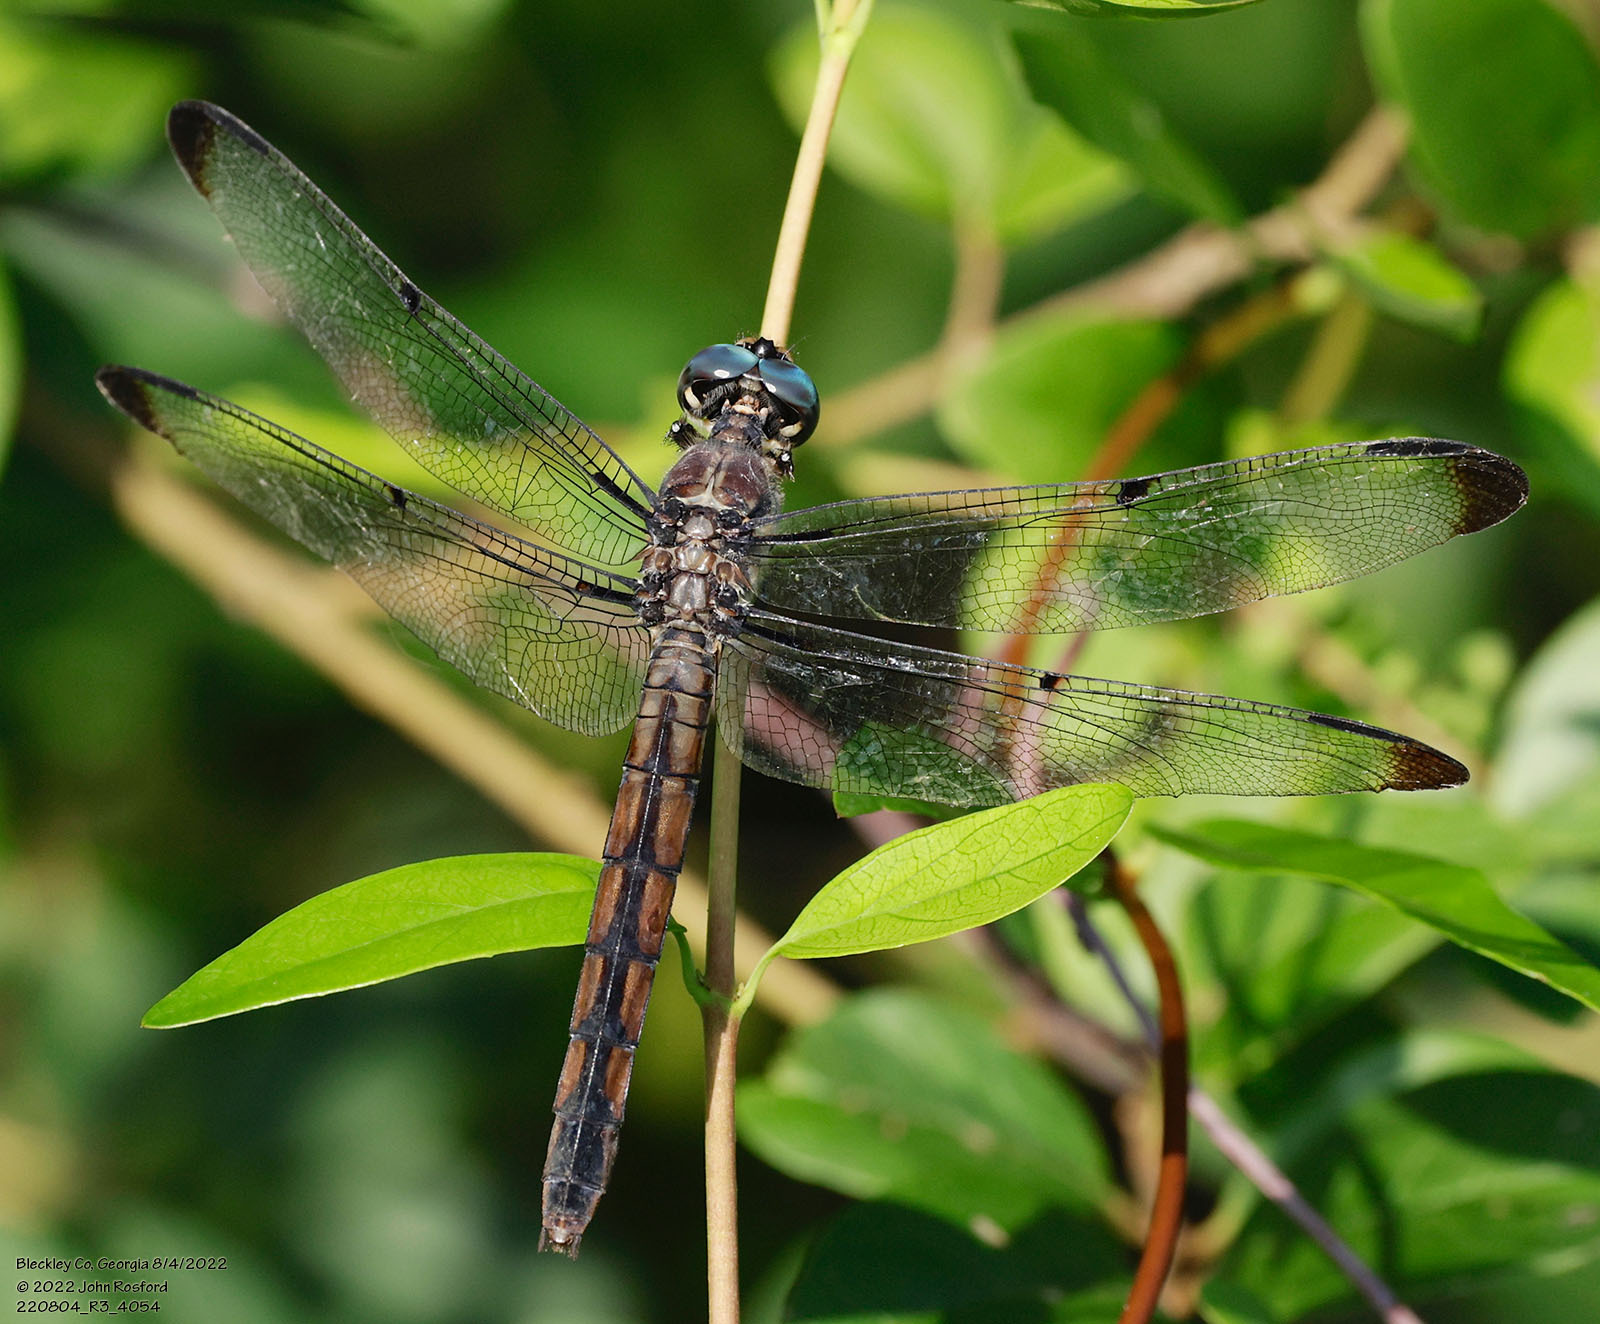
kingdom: Animalia
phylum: Arthropoda
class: Insecta
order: Odonata
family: Libellulidae
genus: Libellula
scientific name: Libellula vibrans
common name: Great blue skimmer
